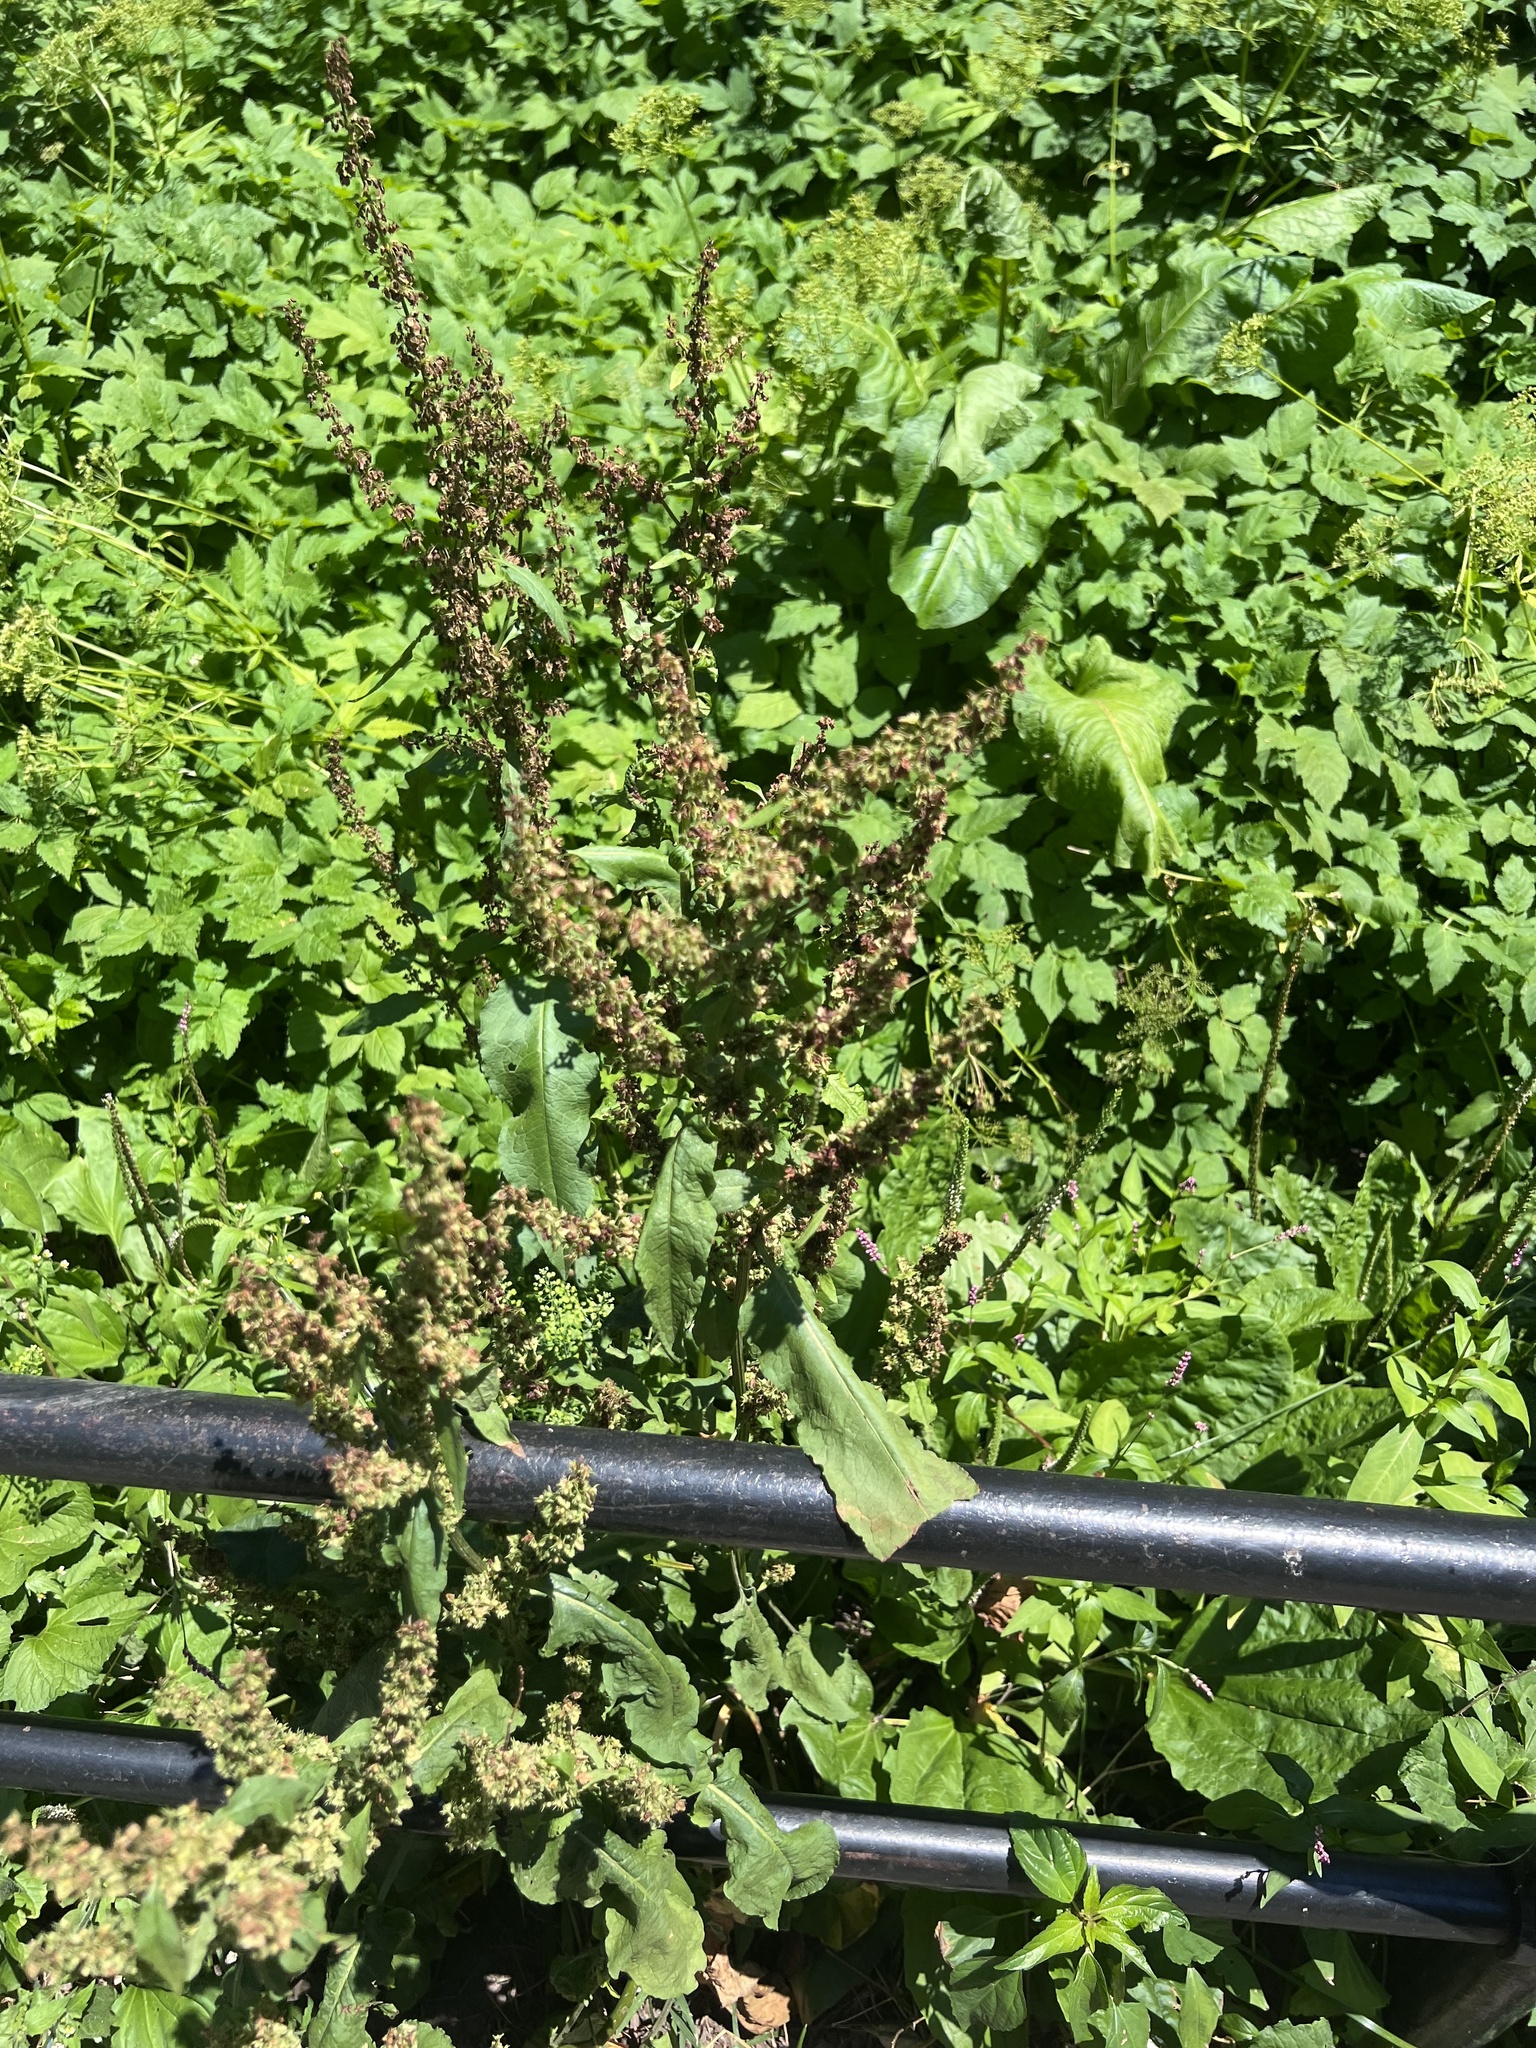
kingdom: Plantae
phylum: Tracheophyta
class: Magnoliopsida
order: Caryophyllales
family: Polygonaceae
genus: Rumex
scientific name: Rumex crispus
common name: Curled dock
